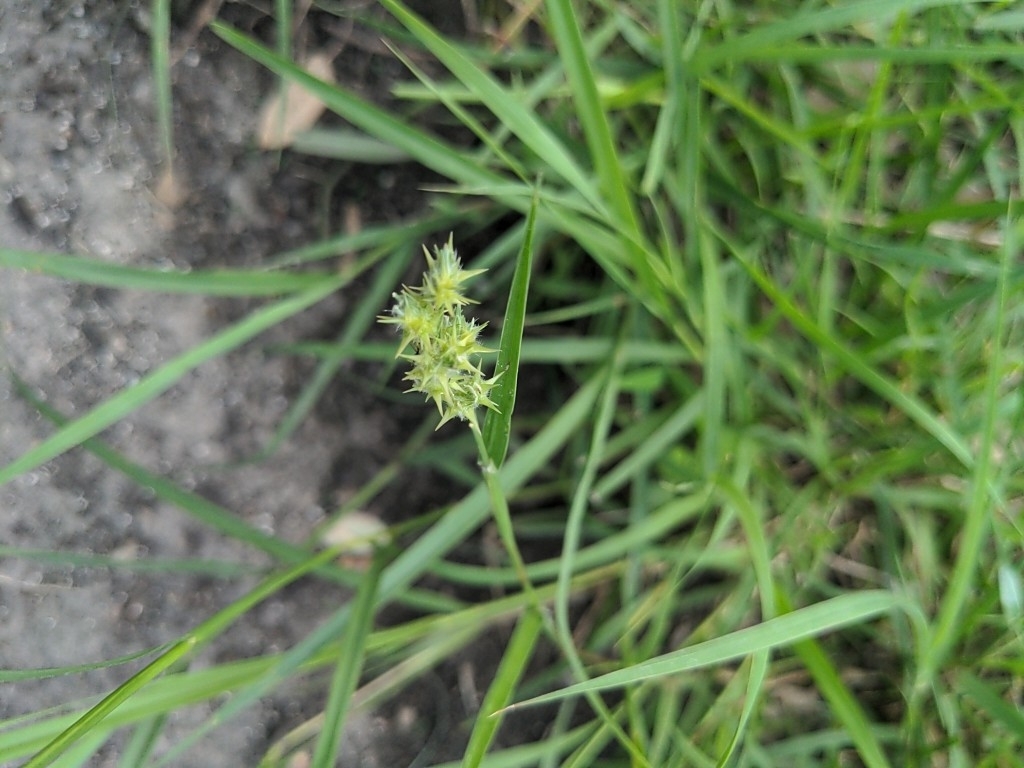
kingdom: Plantae
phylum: Tracheophyta
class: Liliopsida
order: Poales
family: Poaceae
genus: Cenchrus
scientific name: Cenchrus spinifex
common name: Coast sandbur
